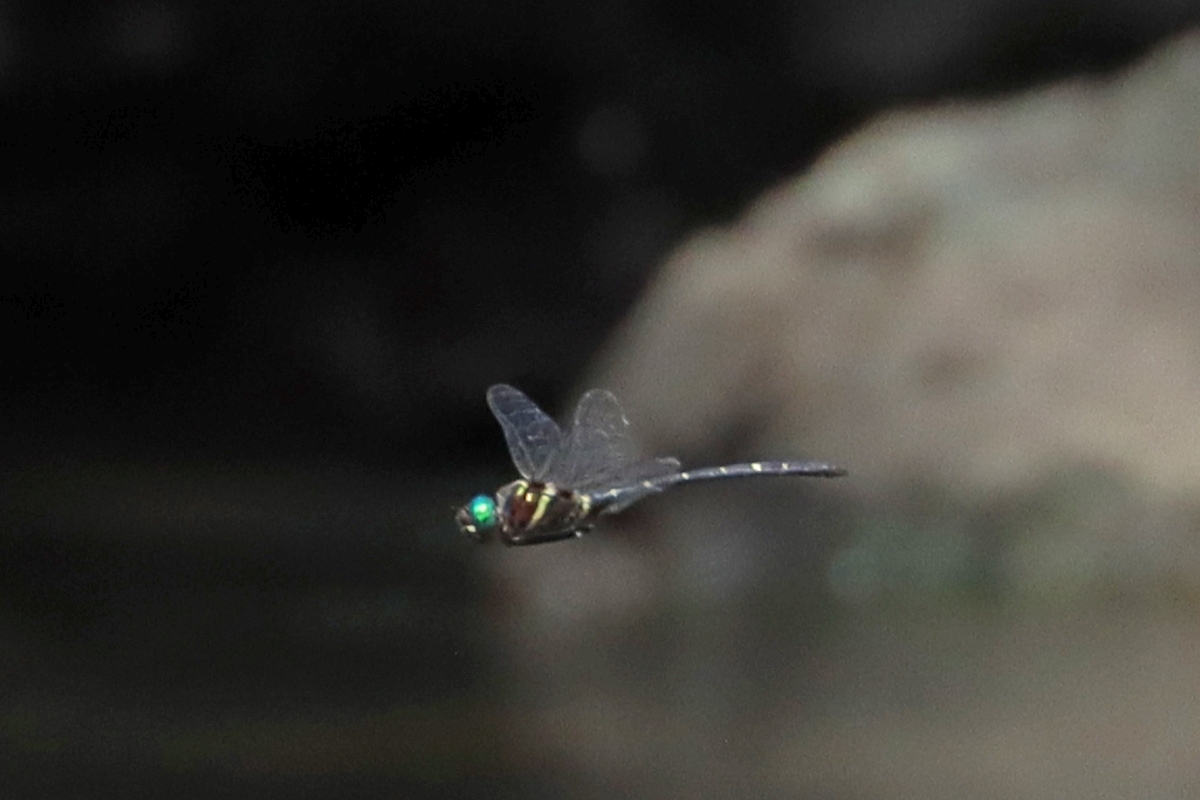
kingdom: Animalia
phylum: Arthropoda
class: Insecta
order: Odonata
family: Macromiidae
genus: Macromia
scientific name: Macromia taeniolata
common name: Royal river cruiser
